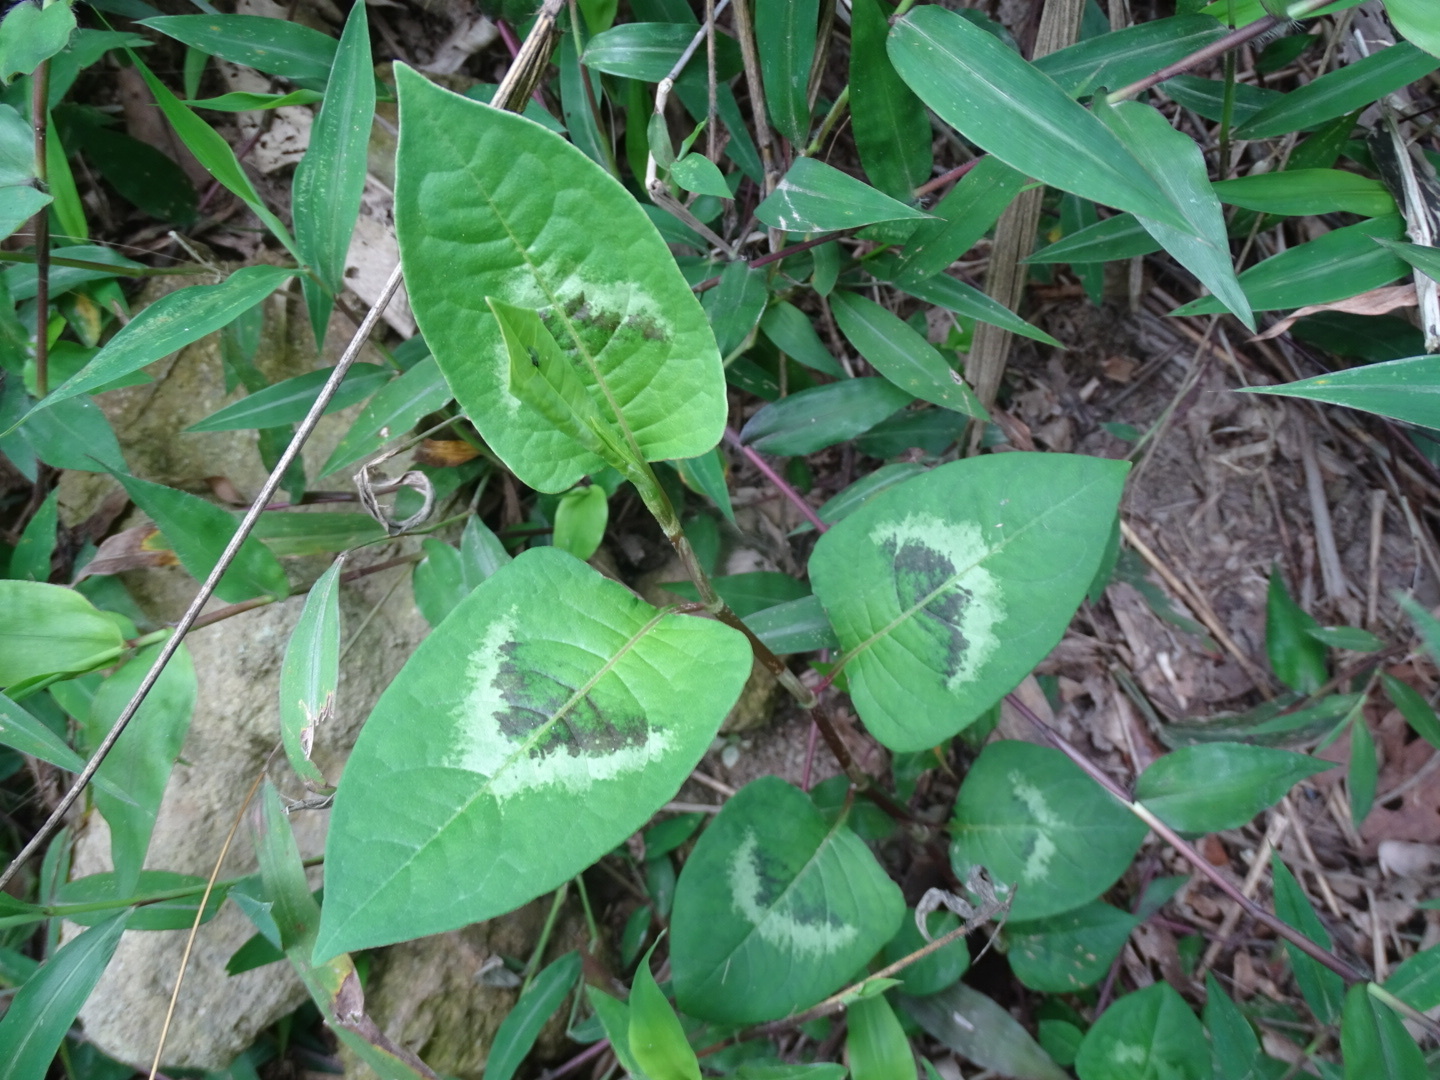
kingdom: Plantae
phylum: Tracheophyta
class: Magnoliopsida
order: Caryophyllales
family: Polygonaceae
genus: Persicaria
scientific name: Persicaria chinensis
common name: Chinese knotweed
